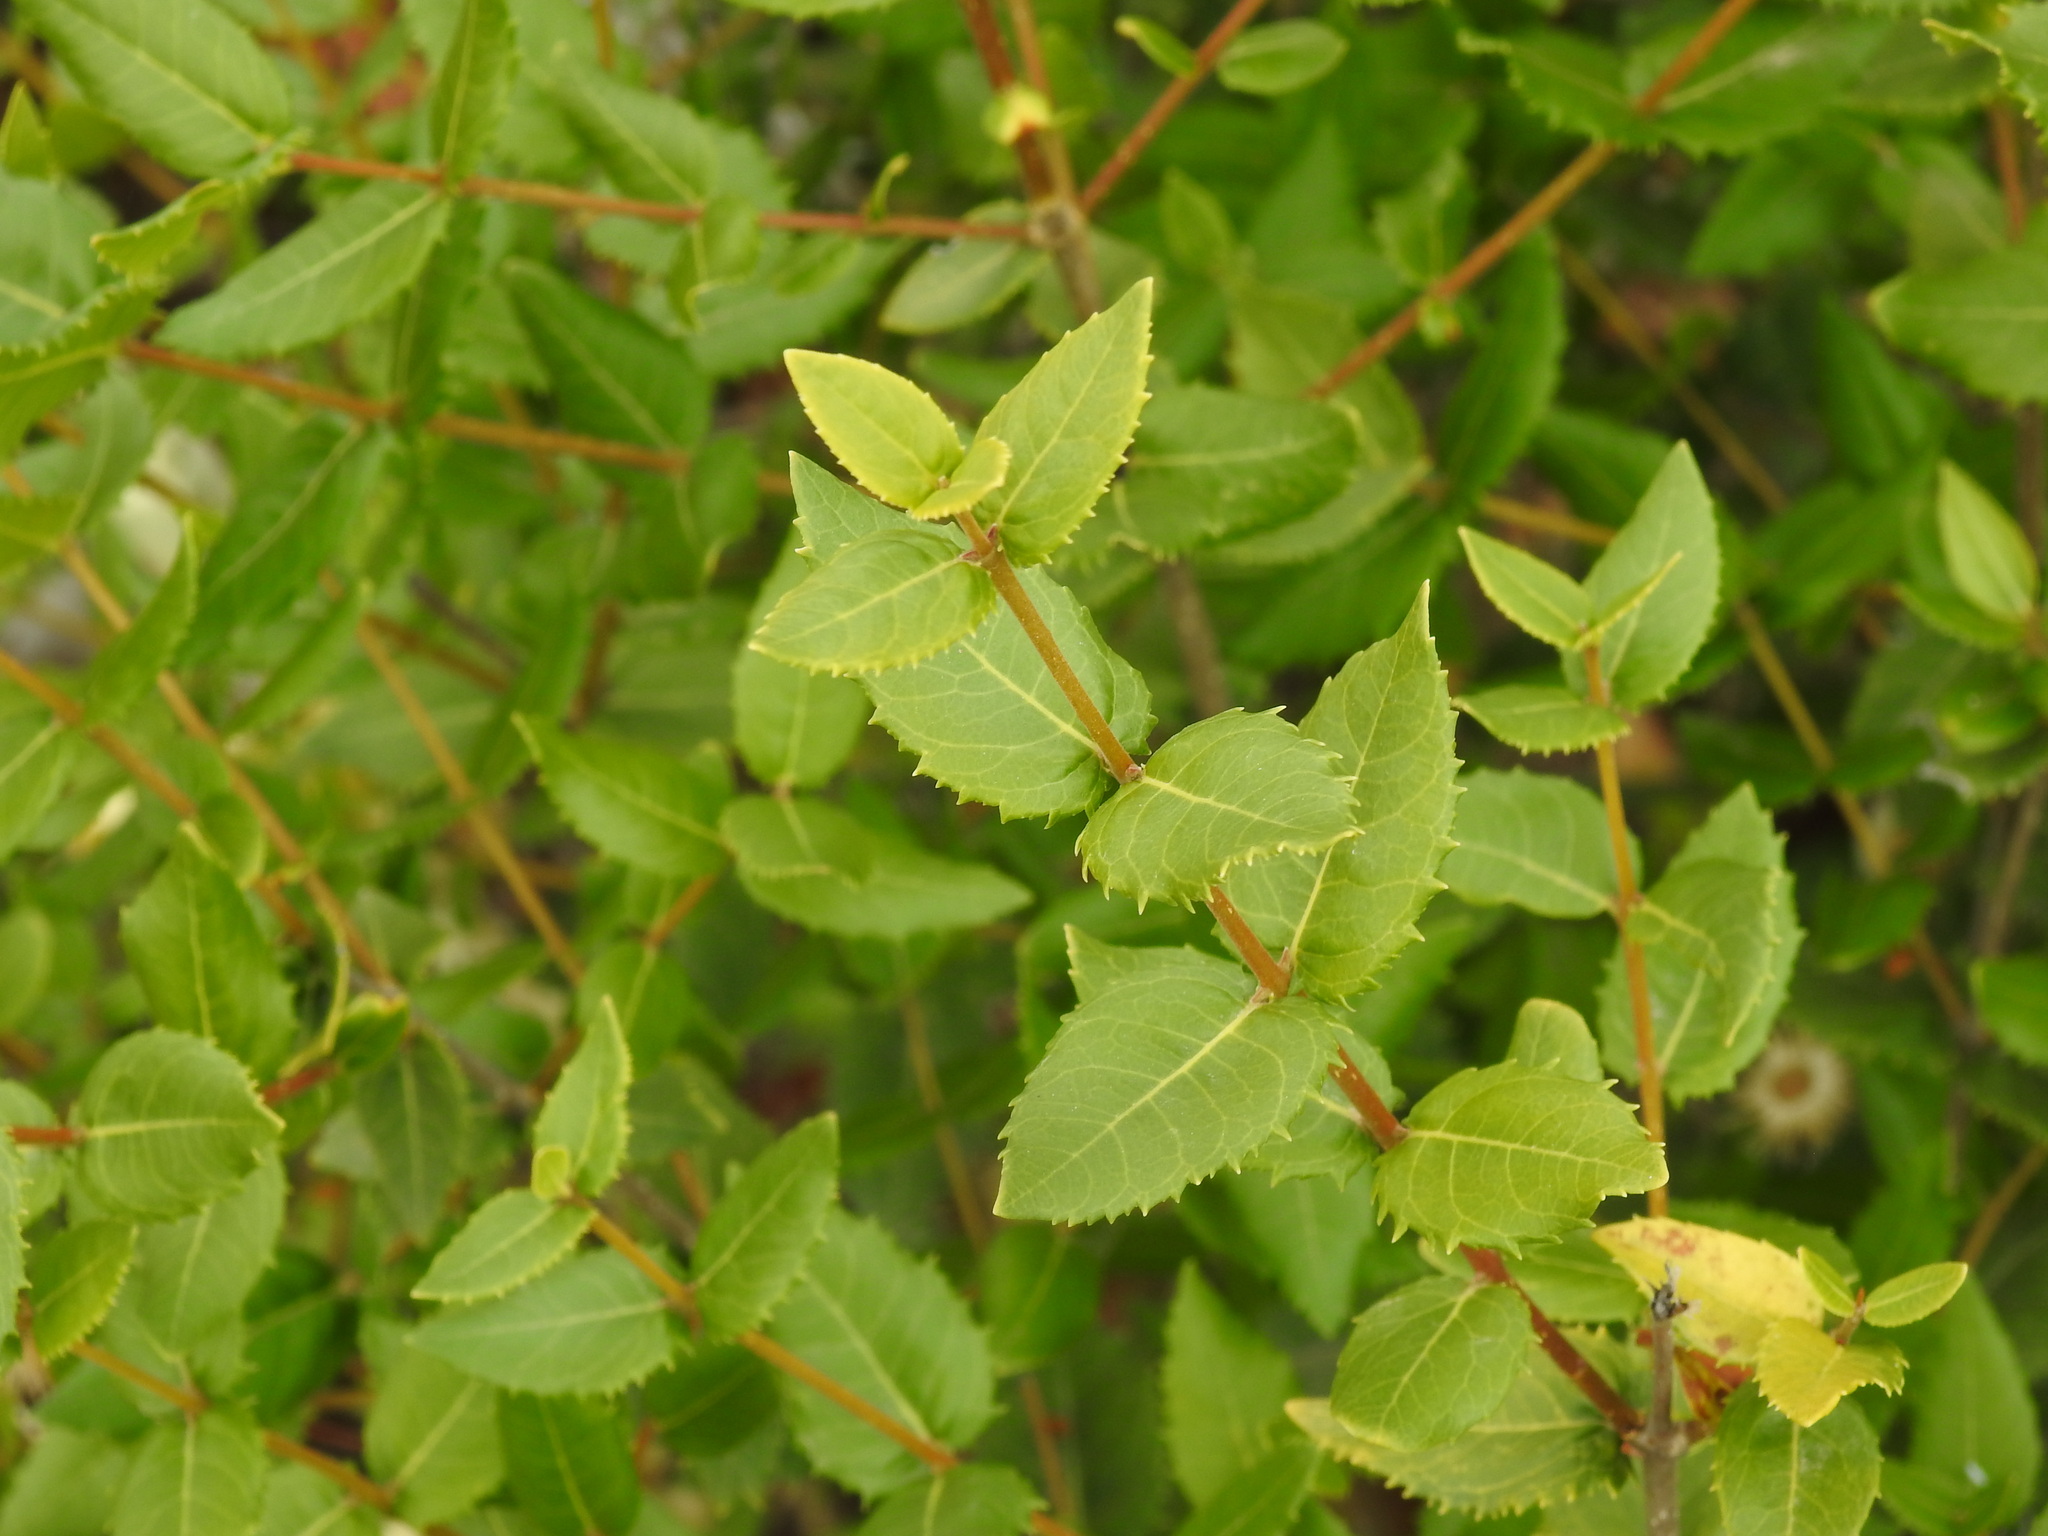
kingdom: Plantae
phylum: Tracheophyta
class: Magnoliopsida
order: Lamiales
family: Oleaceae
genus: Phillyrea
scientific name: Phillyrea latifolia
